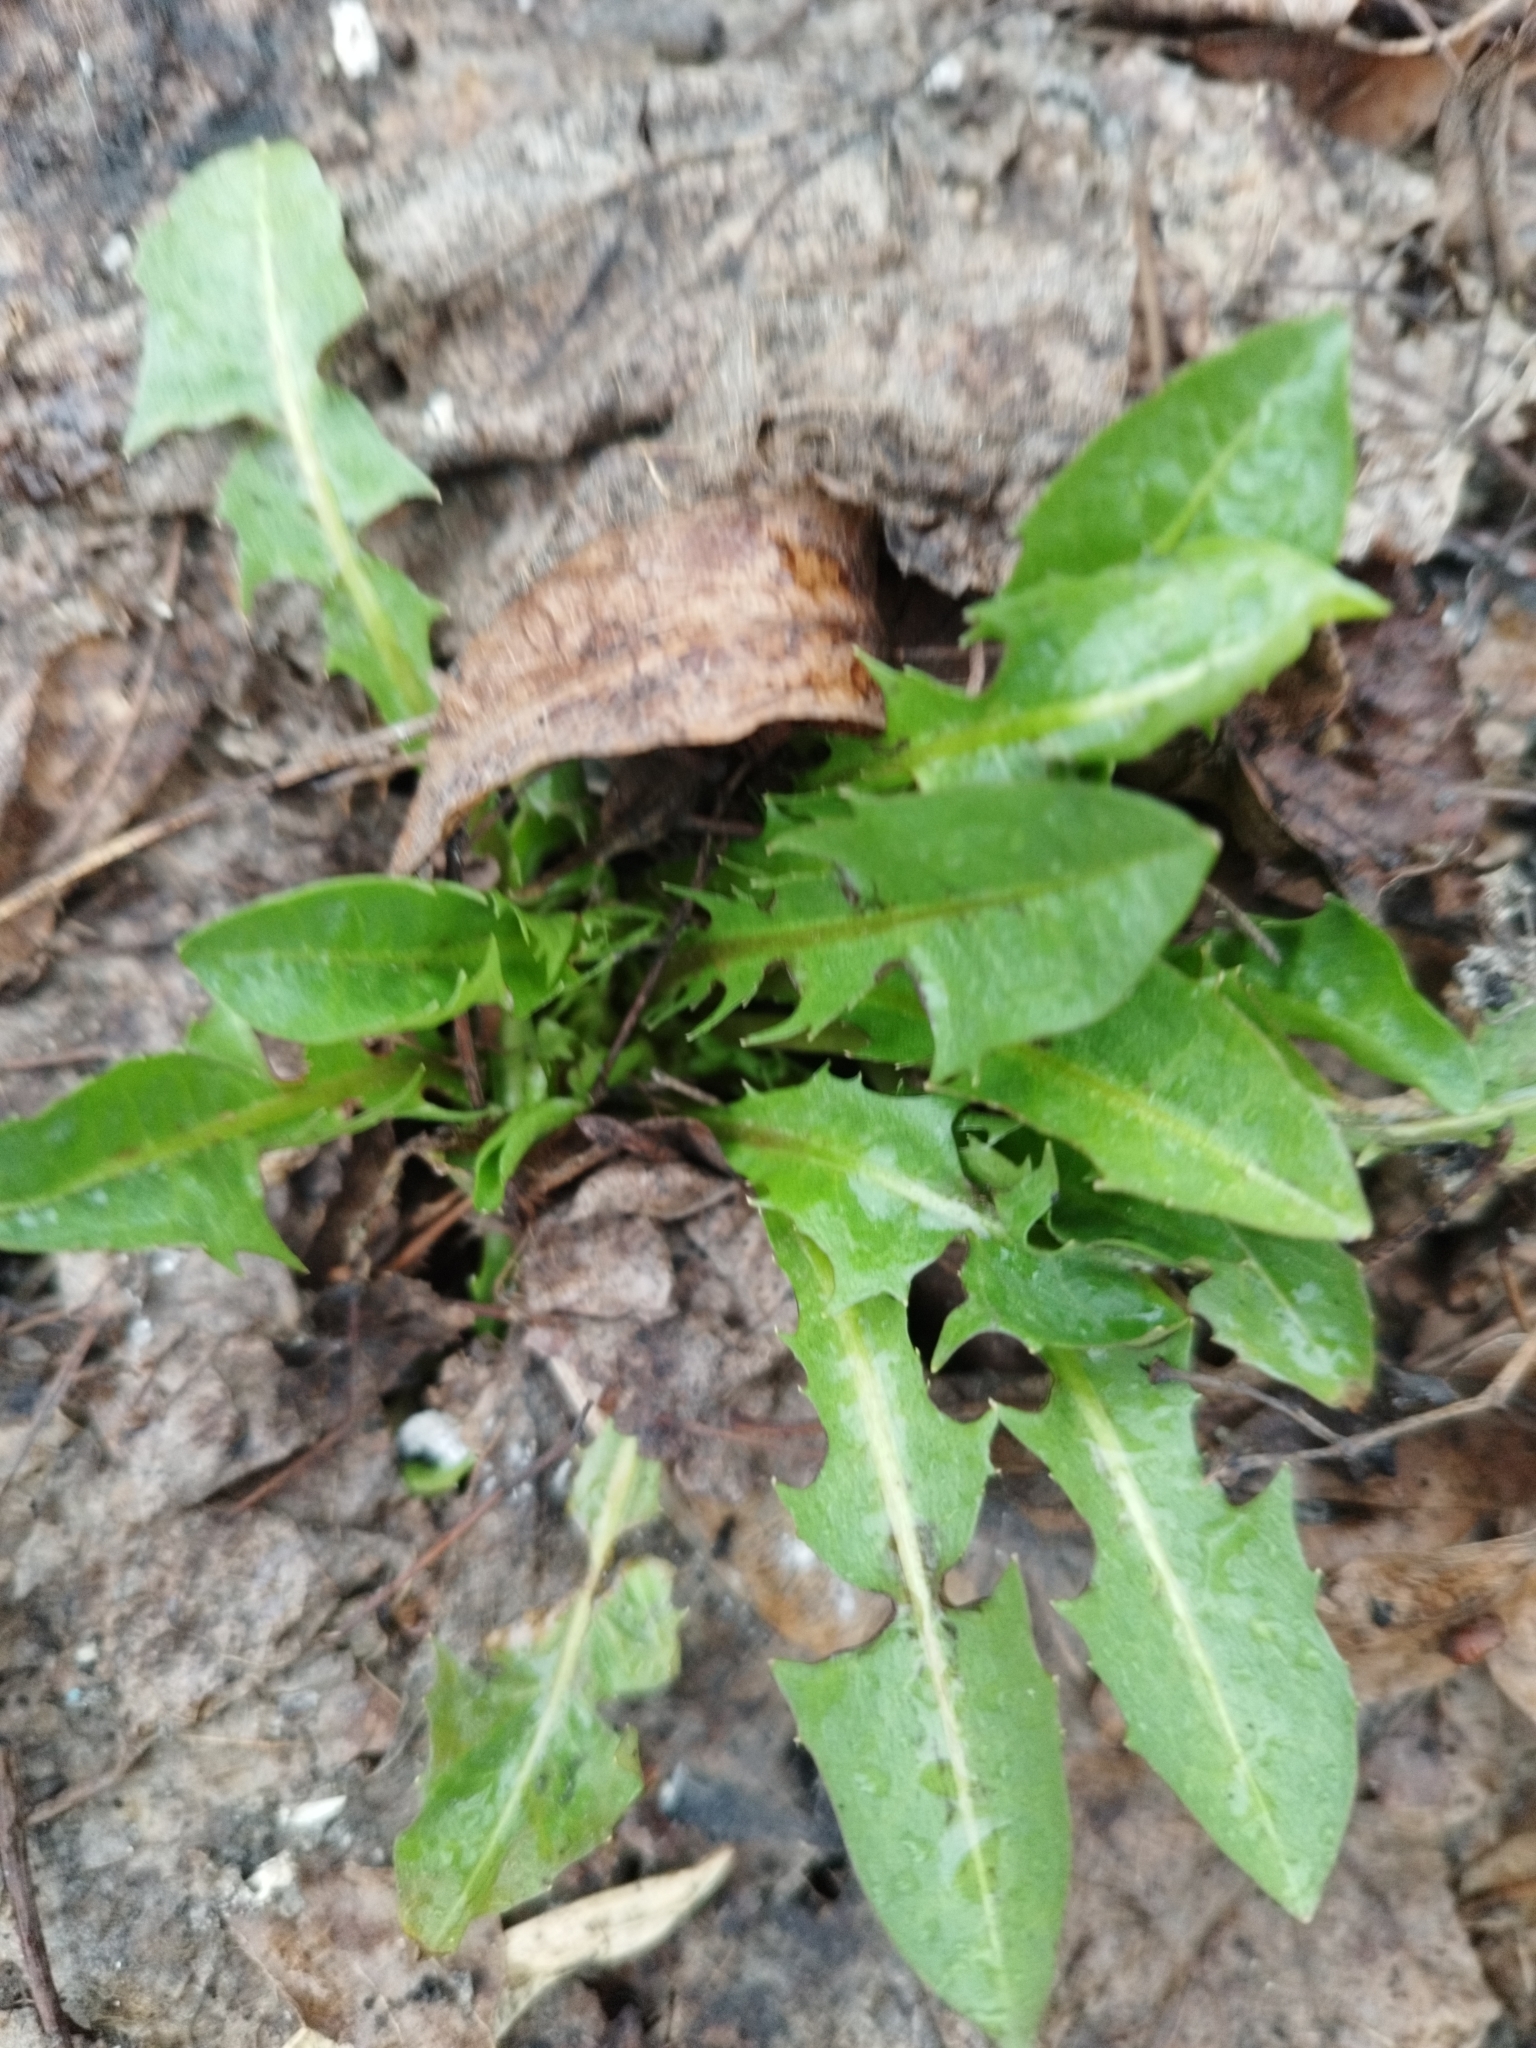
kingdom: Plantae
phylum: Tracheophyta
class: Magnoliopsida
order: Asterales
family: Asteraceae
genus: Taraxacum
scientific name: Taraxacum officinale
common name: Common dandelion
